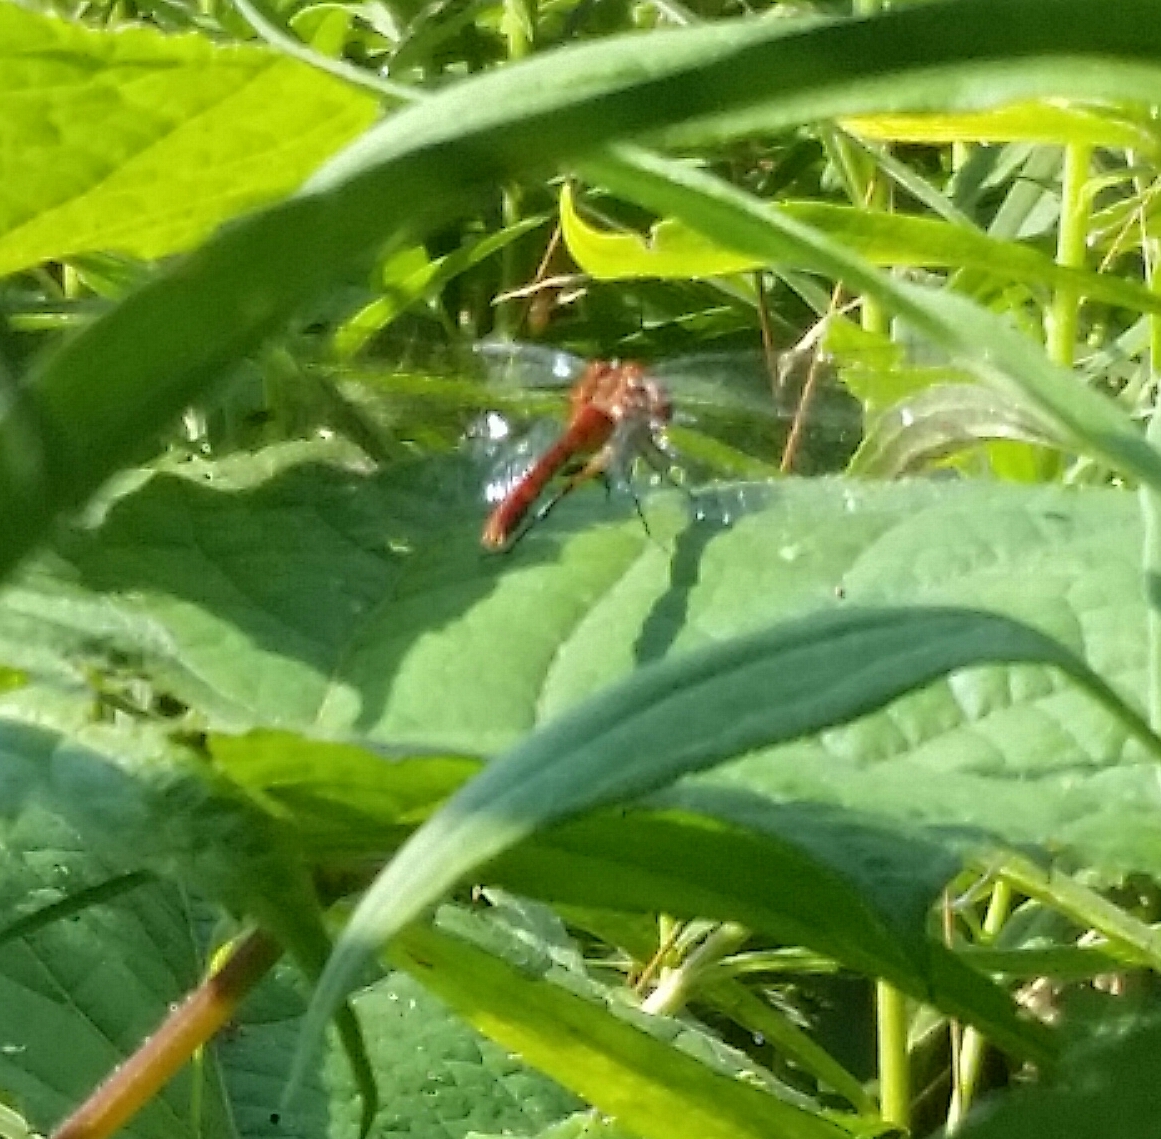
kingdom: Animalia
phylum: Arthropoda
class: Insecta
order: Odonata
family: Libellulidae
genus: Sympetrum
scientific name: Sympetrum
